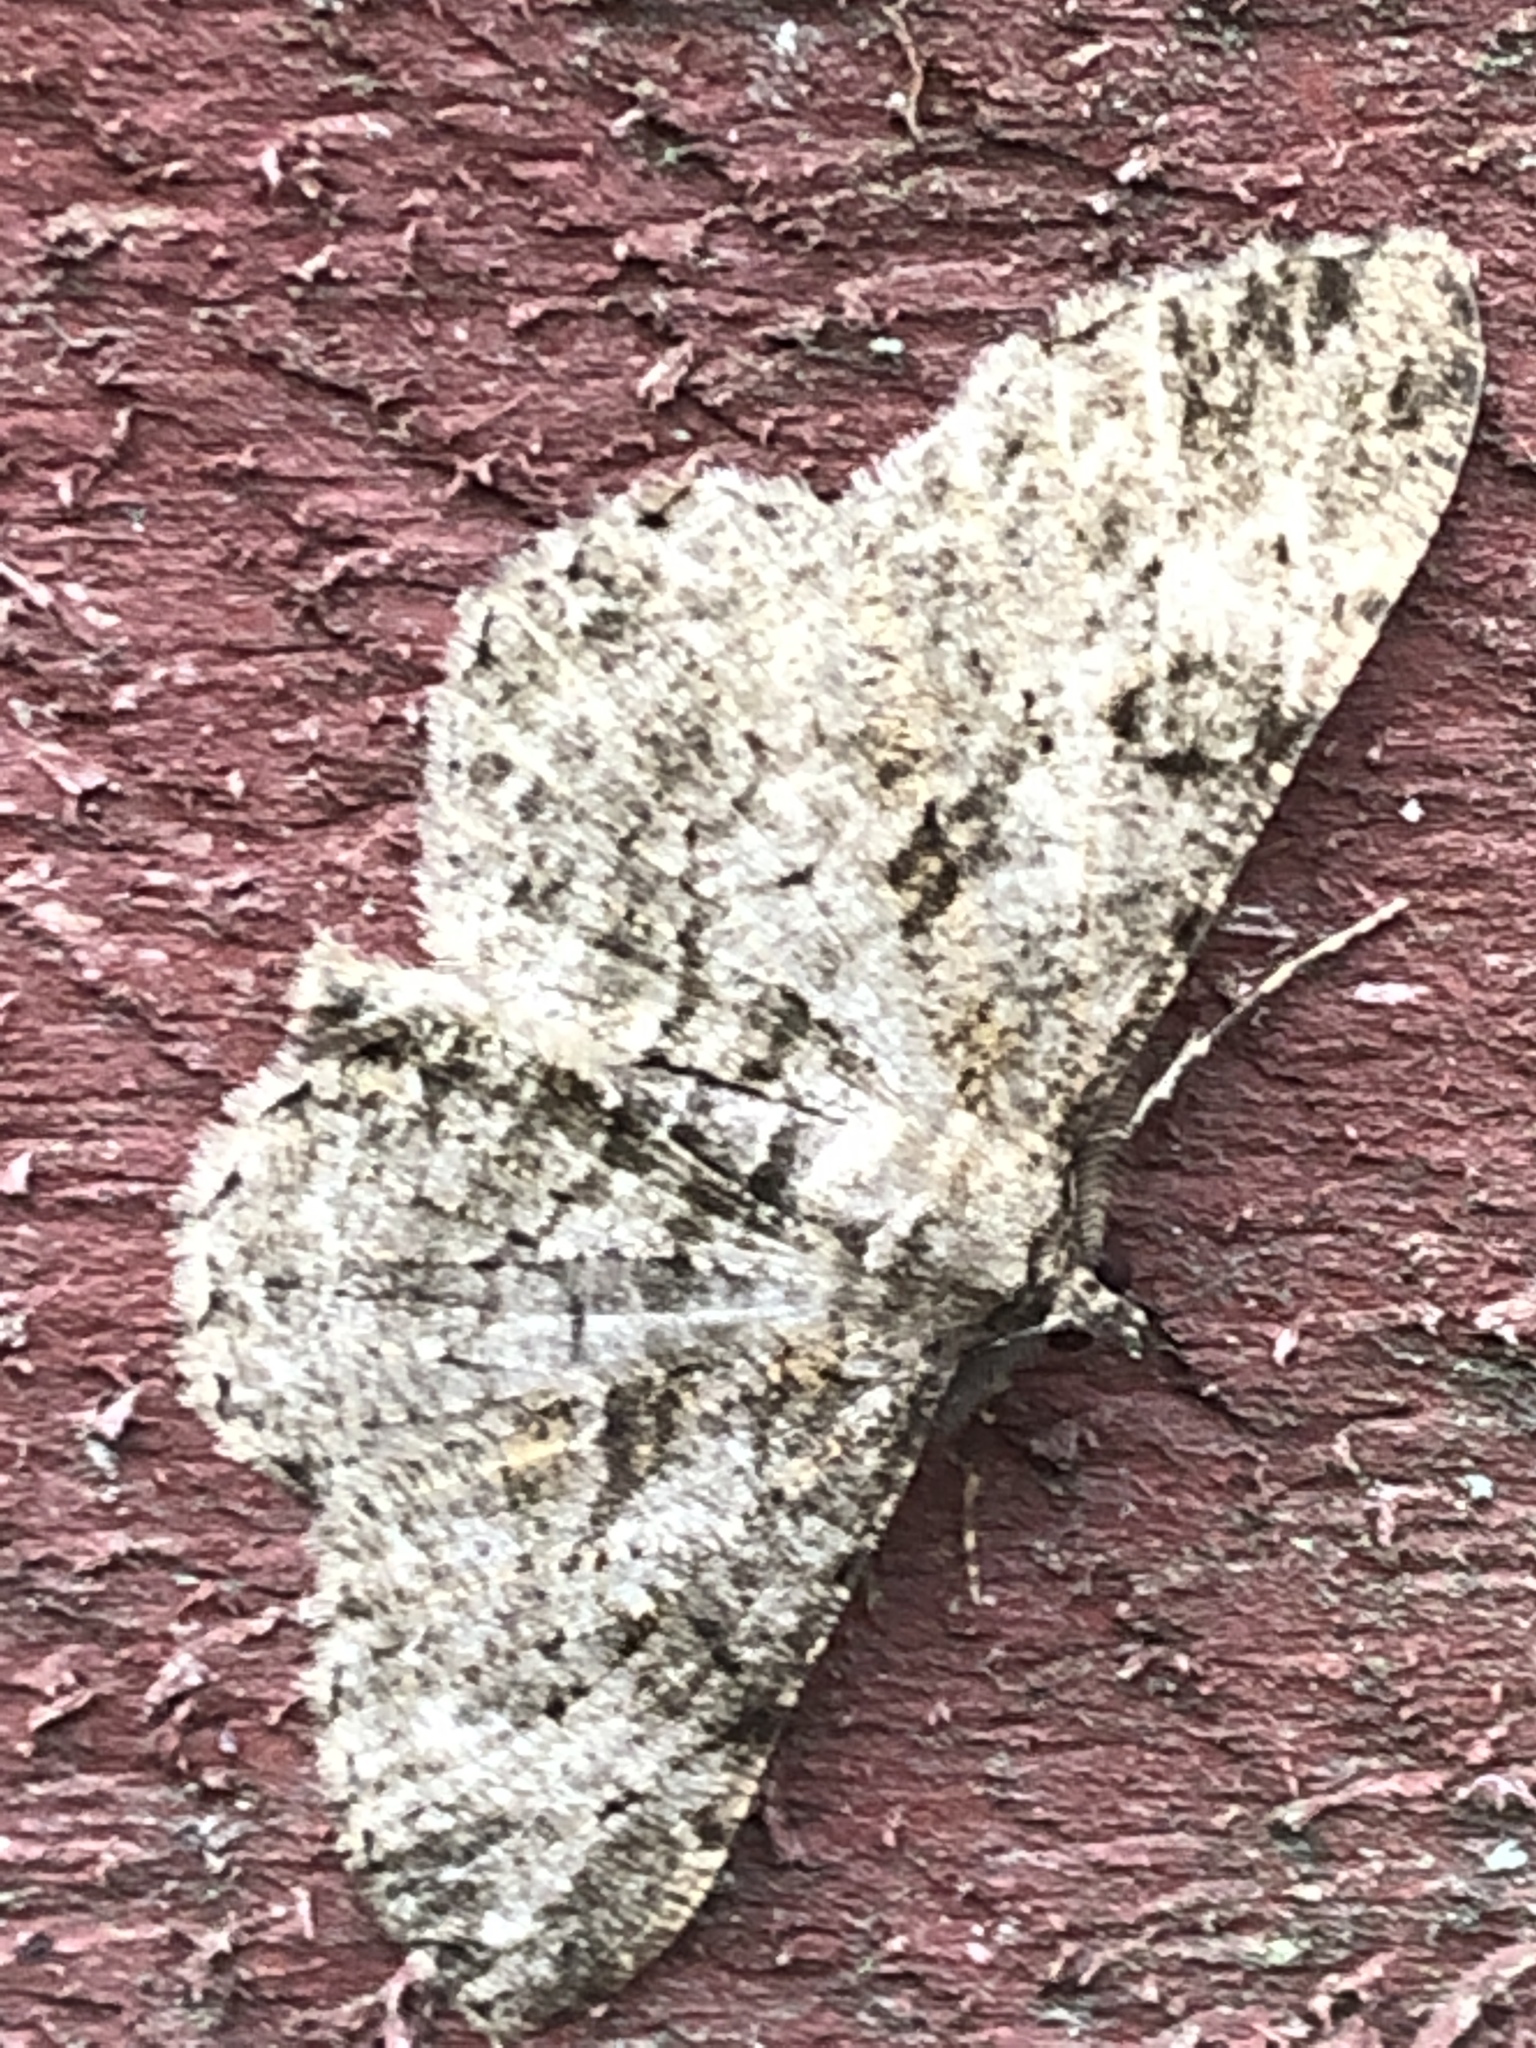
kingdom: Animalia
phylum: Arthropoda
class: Insecta
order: Lepidoptera
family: Geometridae
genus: Peribatodes
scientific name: Peribatodes rhomboidaria
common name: Willow beauty
